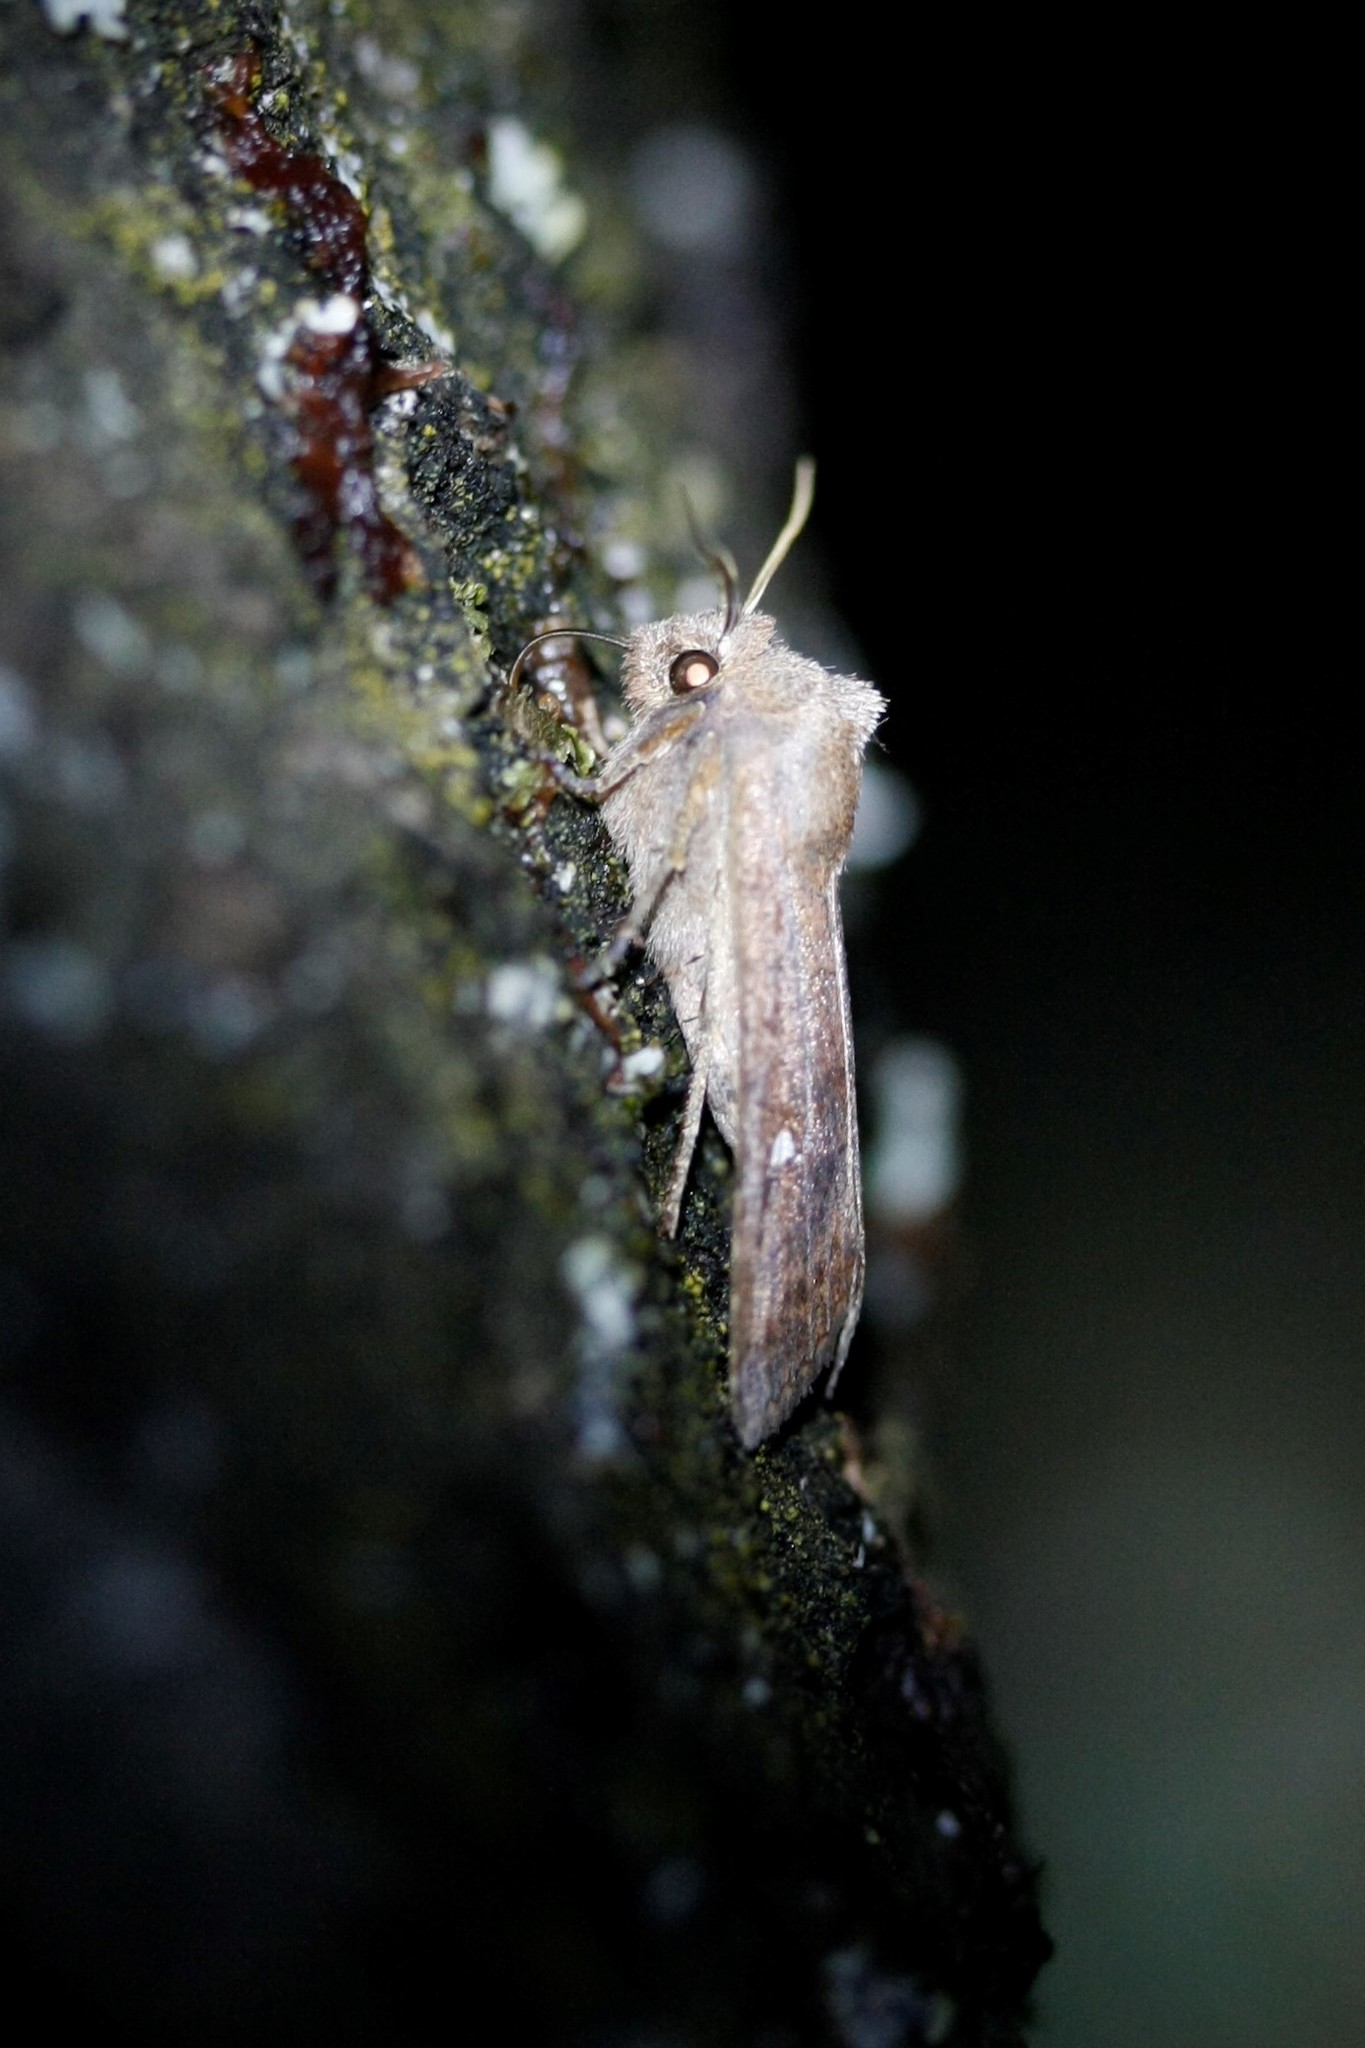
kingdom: Animalia
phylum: Arthropoda
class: Insecta
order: Lepidoptera
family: Noctuidae
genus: Eupsilia
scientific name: Eupsilia transversa
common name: Satellite
